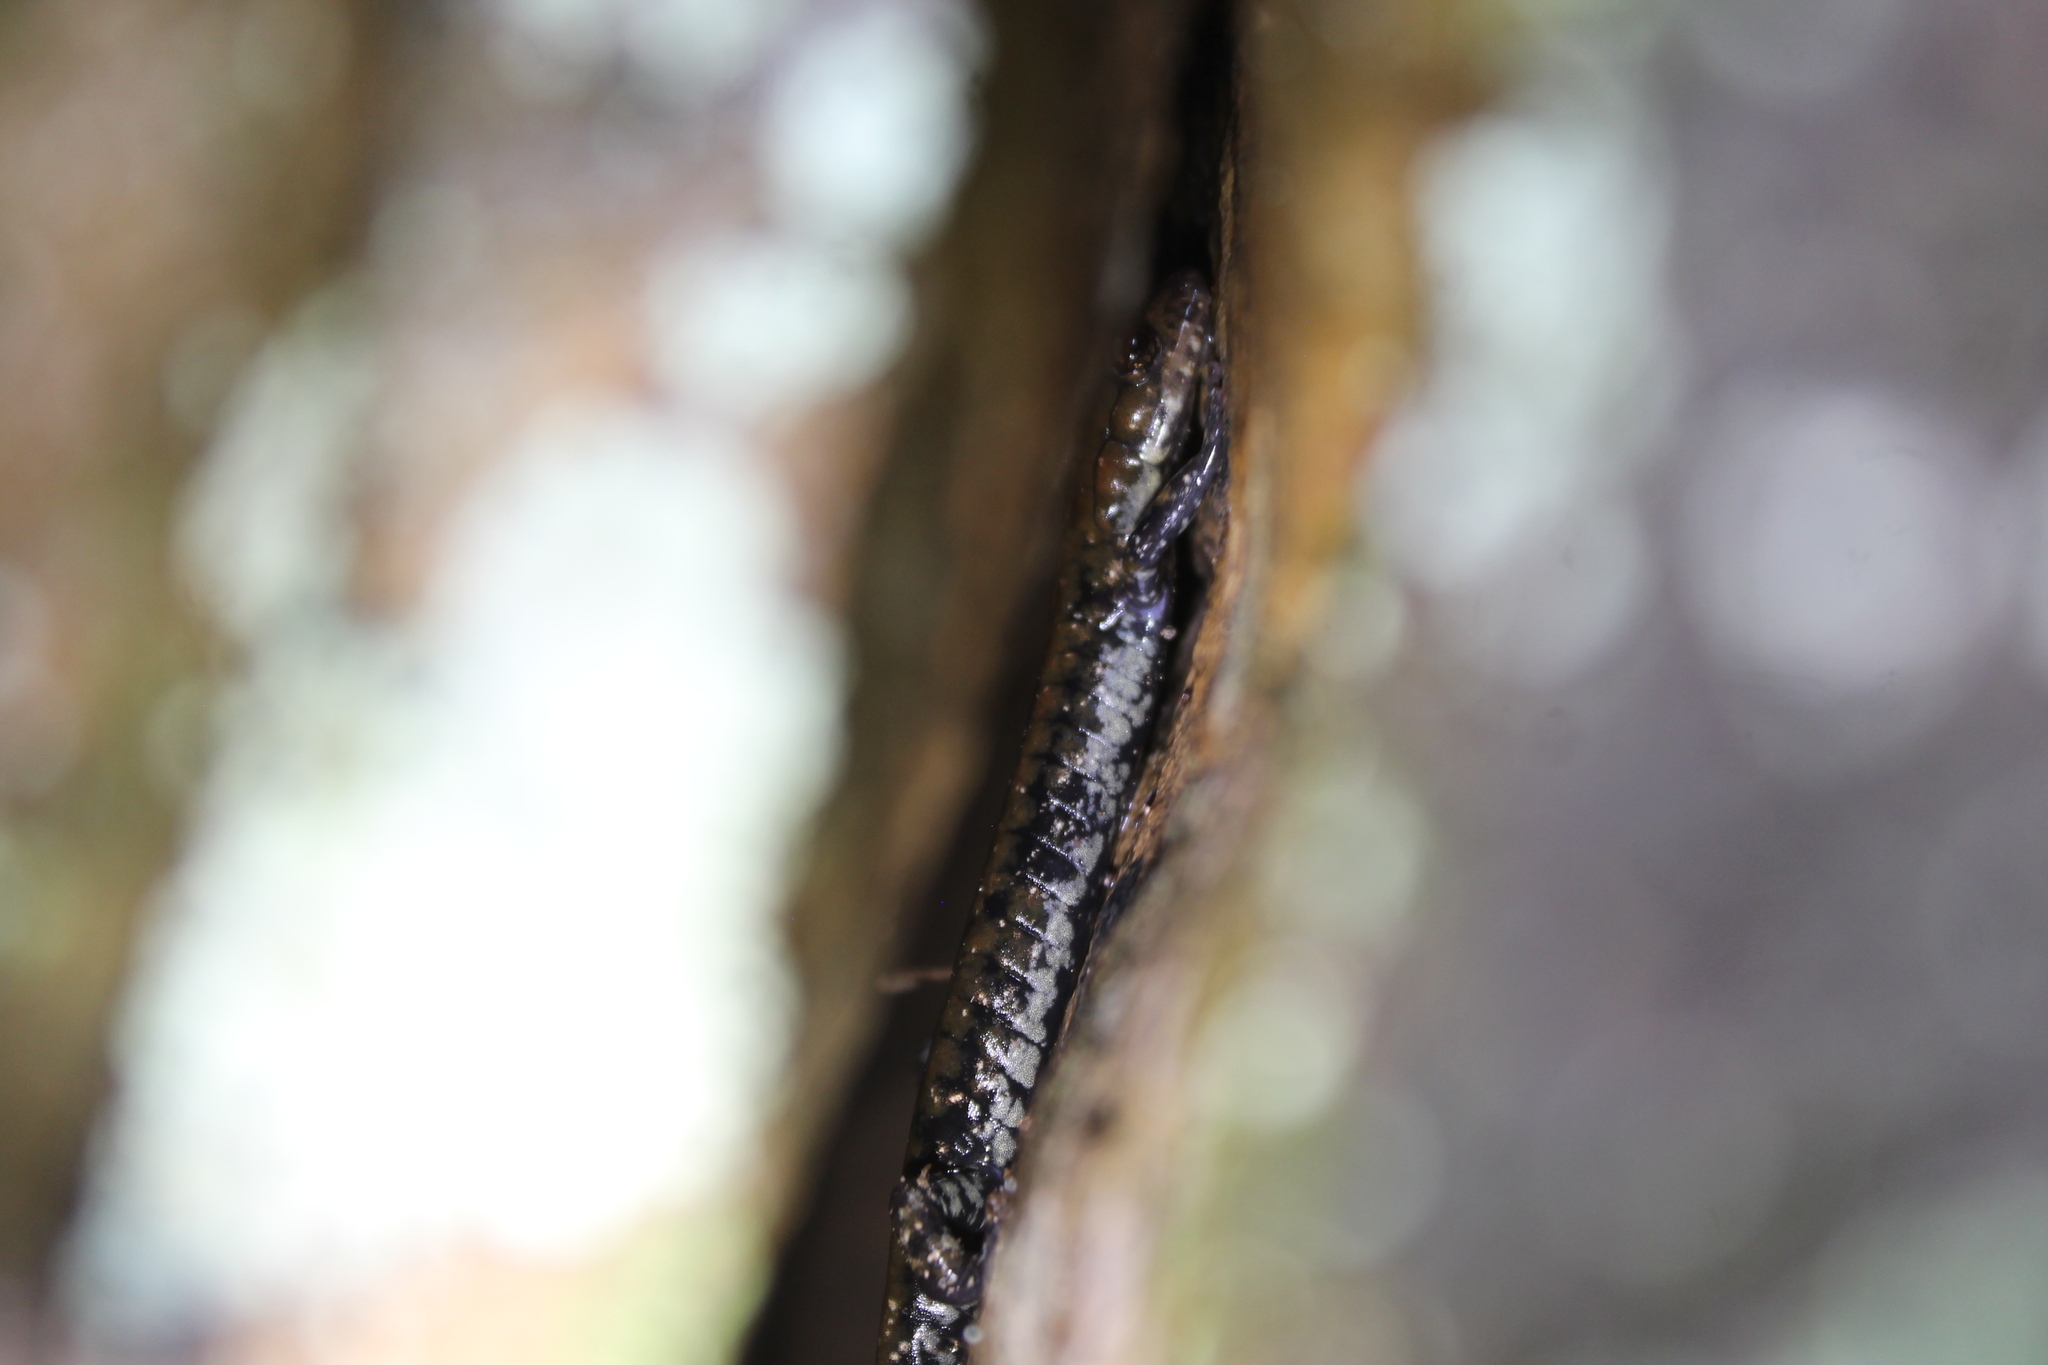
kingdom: Animalia
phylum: Chordata
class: Amphibia
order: Caudata
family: Plethodontidae
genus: Plethodon
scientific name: Plethodon petraeus
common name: Pigeon mountain salamander
